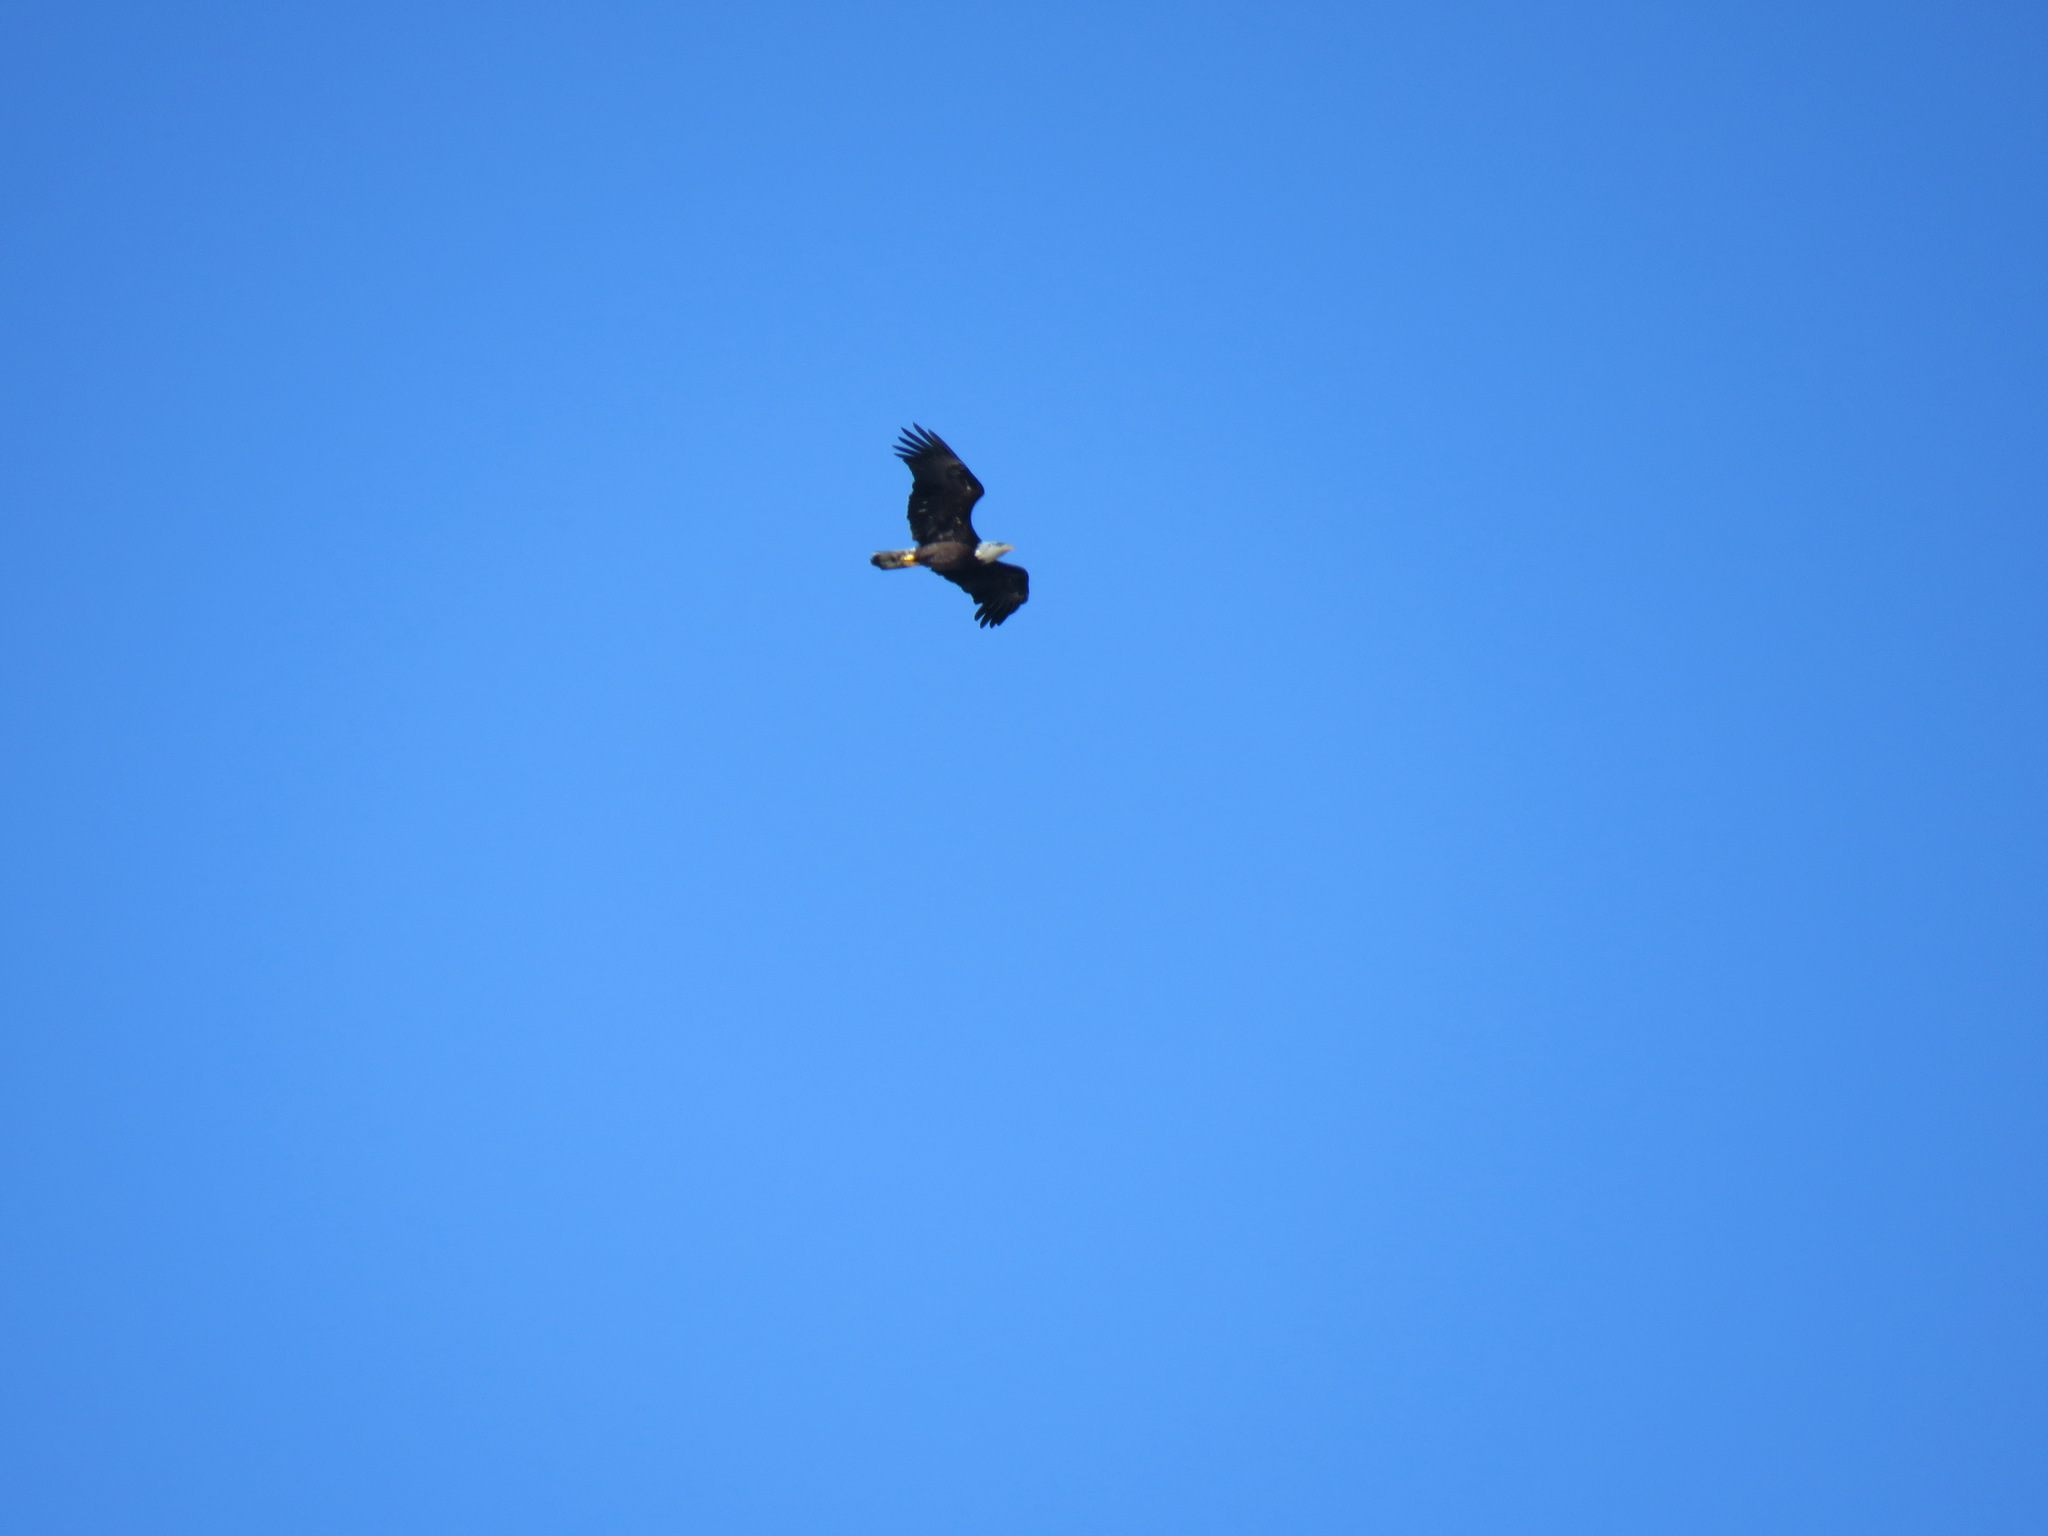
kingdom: Animalia
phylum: Chordata
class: Aves
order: Accipitriformes
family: Accipitridae
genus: Haliaeetus
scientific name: Haliaeetus leucocephalus
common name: Bald eagle
